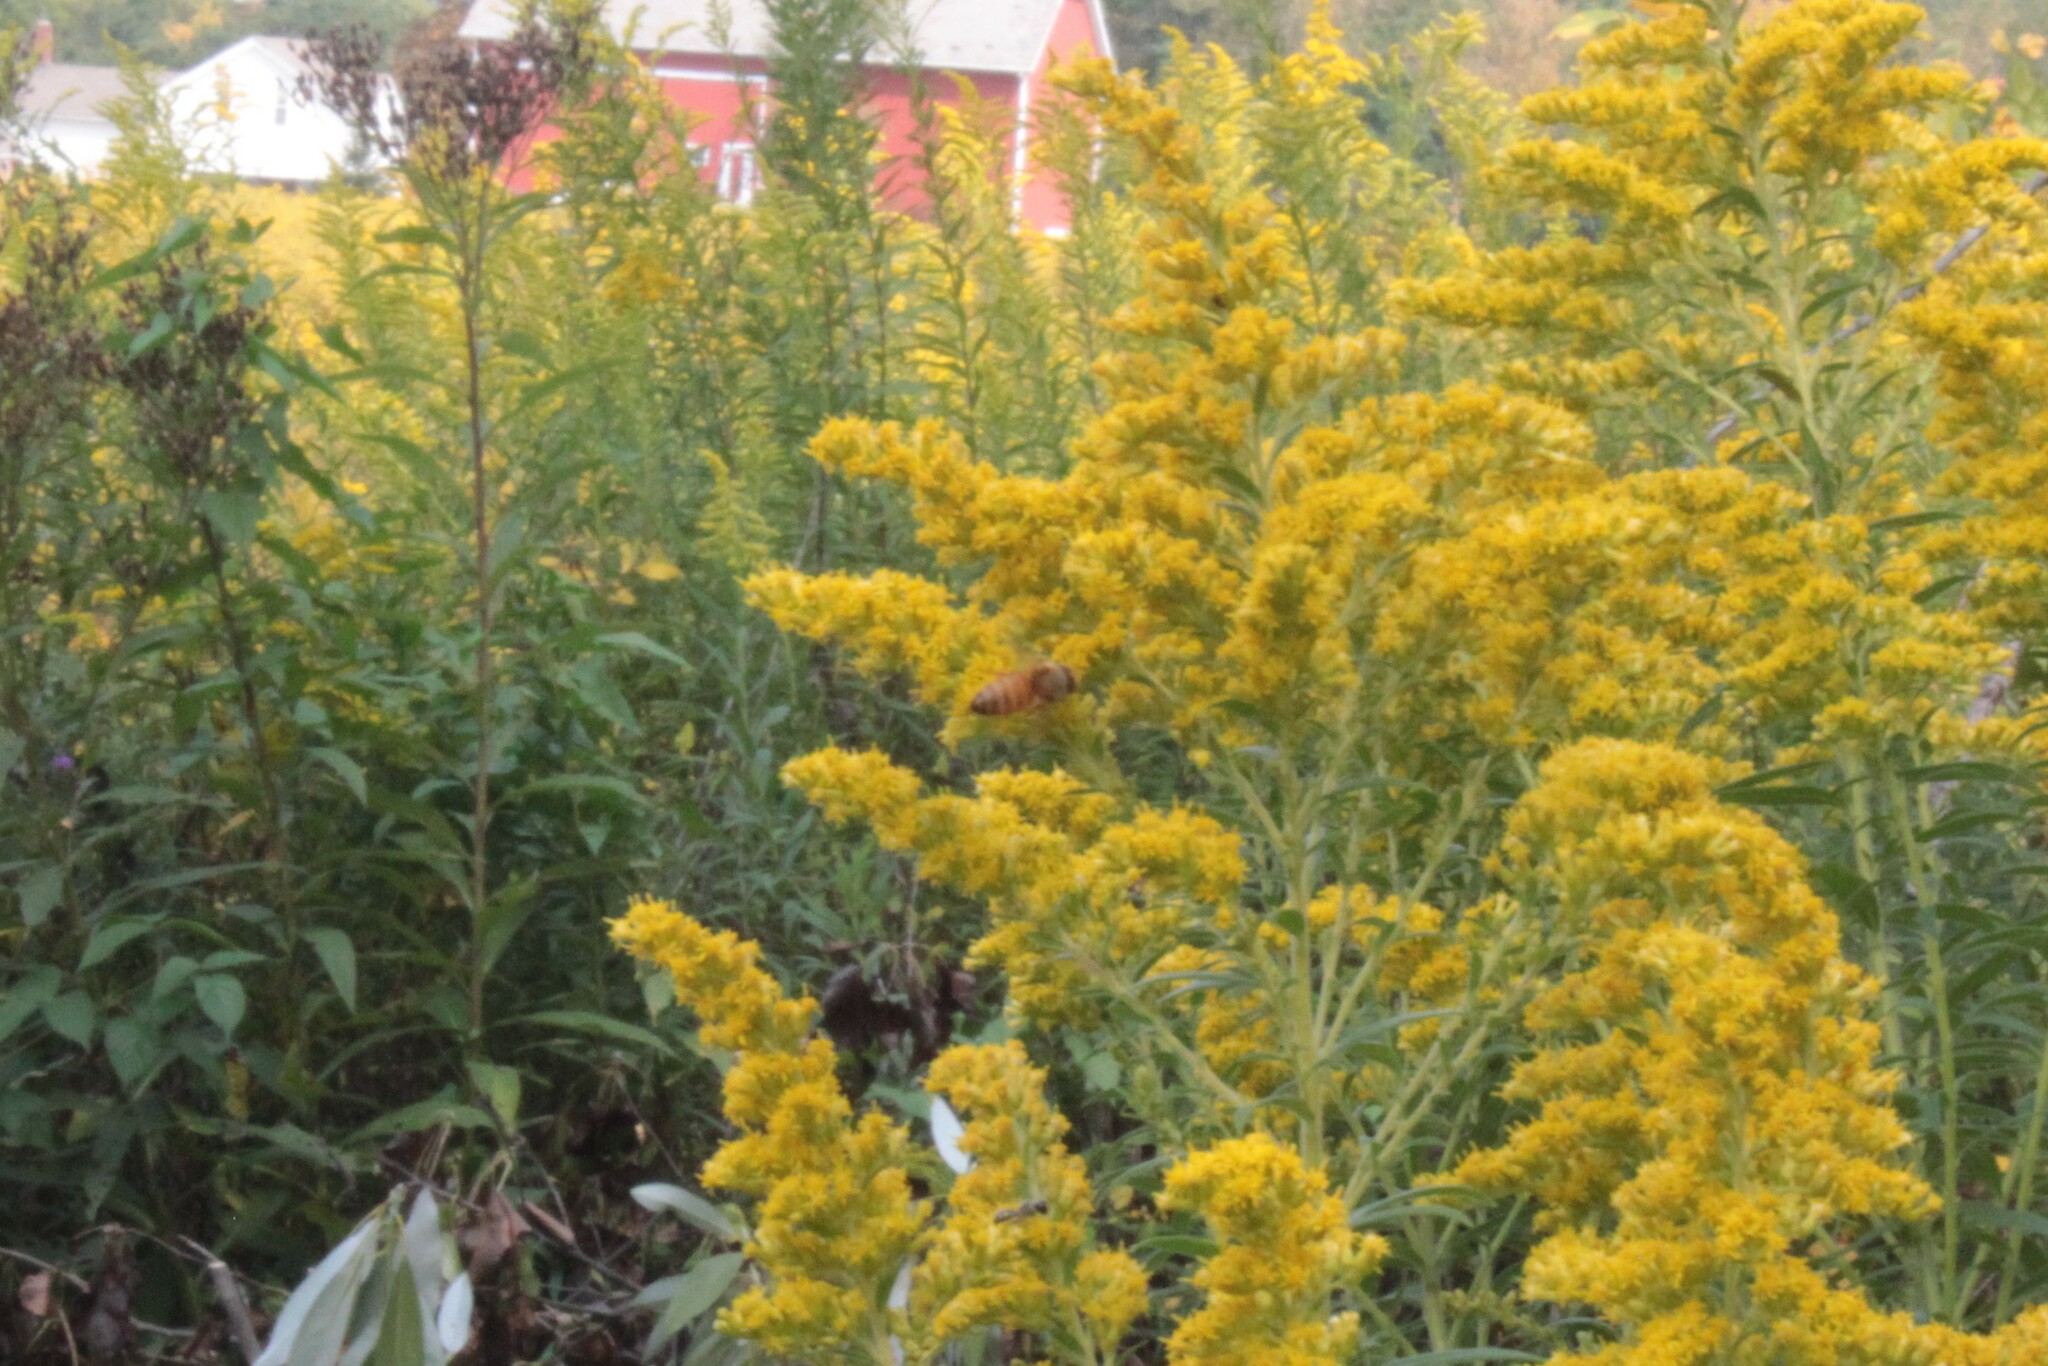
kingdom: Animalia
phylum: Arthropoda
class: Insecta
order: Hymenoptera
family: Apidae
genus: Apis
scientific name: Apis mellifera
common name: Honey bee
